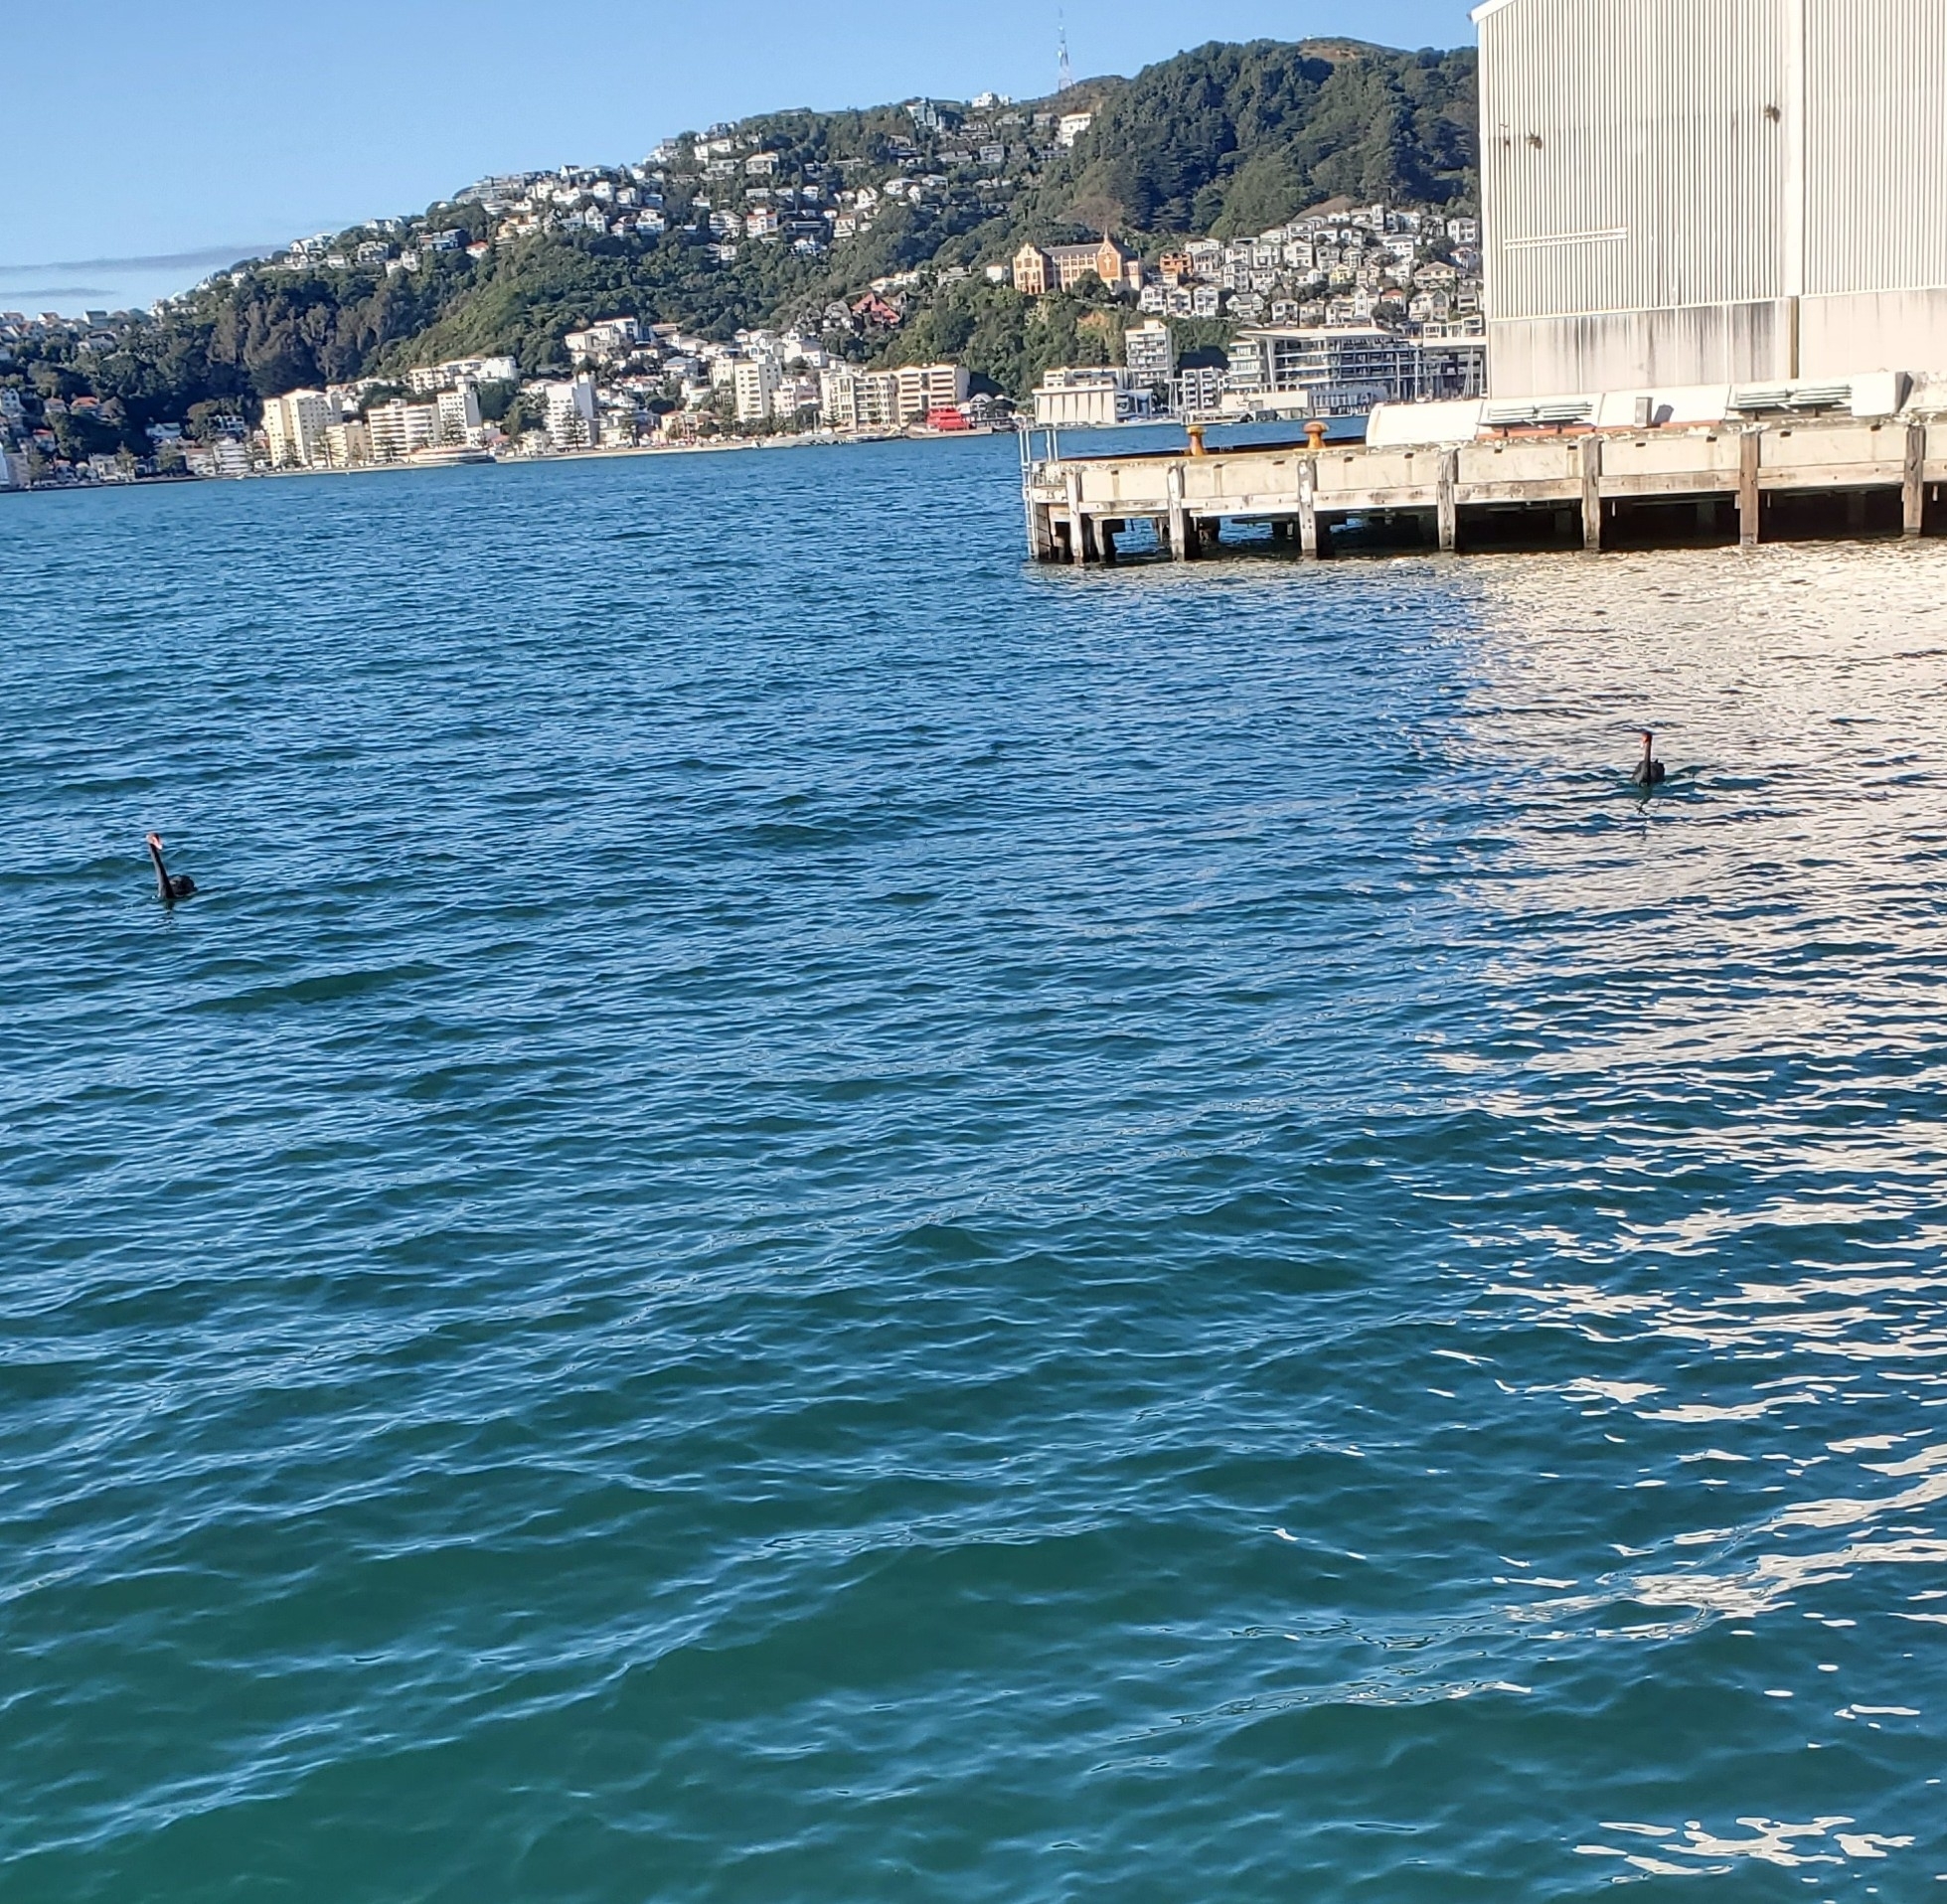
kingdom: Animalia
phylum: Chordata
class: Aves
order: Anseriformes
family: Anatidae
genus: Cygnus
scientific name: Cygnus atratus
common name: Black swan
